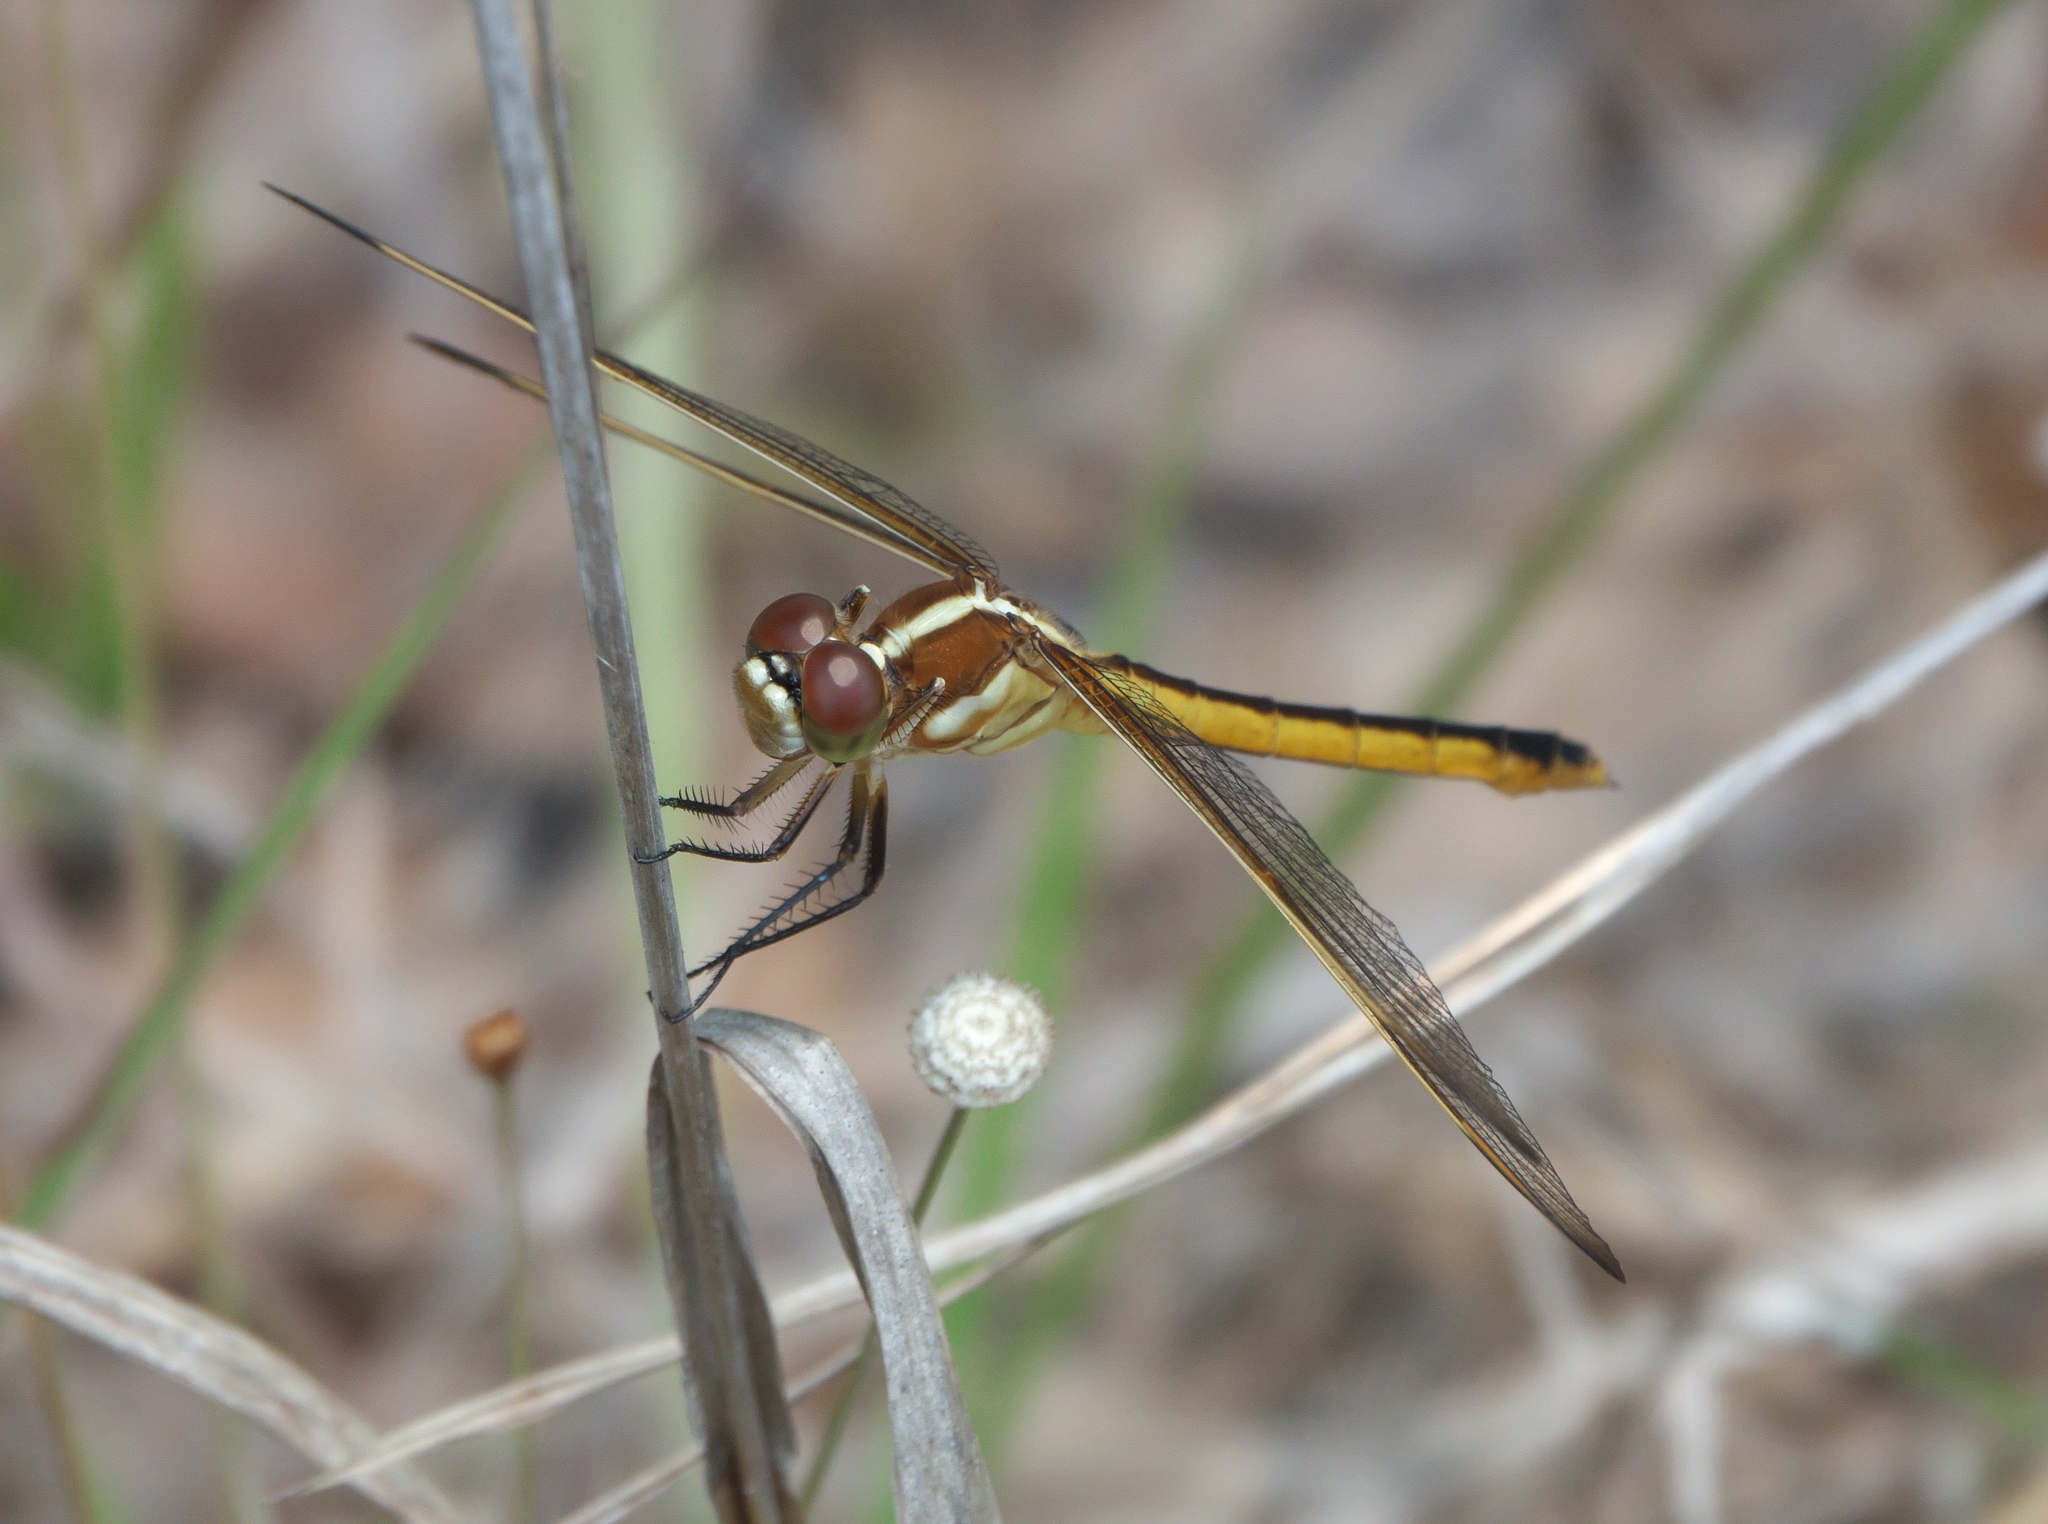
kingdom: Animalia
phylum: Arthropoda
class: Insecta
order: Odonata
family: Libellulidae
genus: Libellula
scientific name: Libellula auripennis
